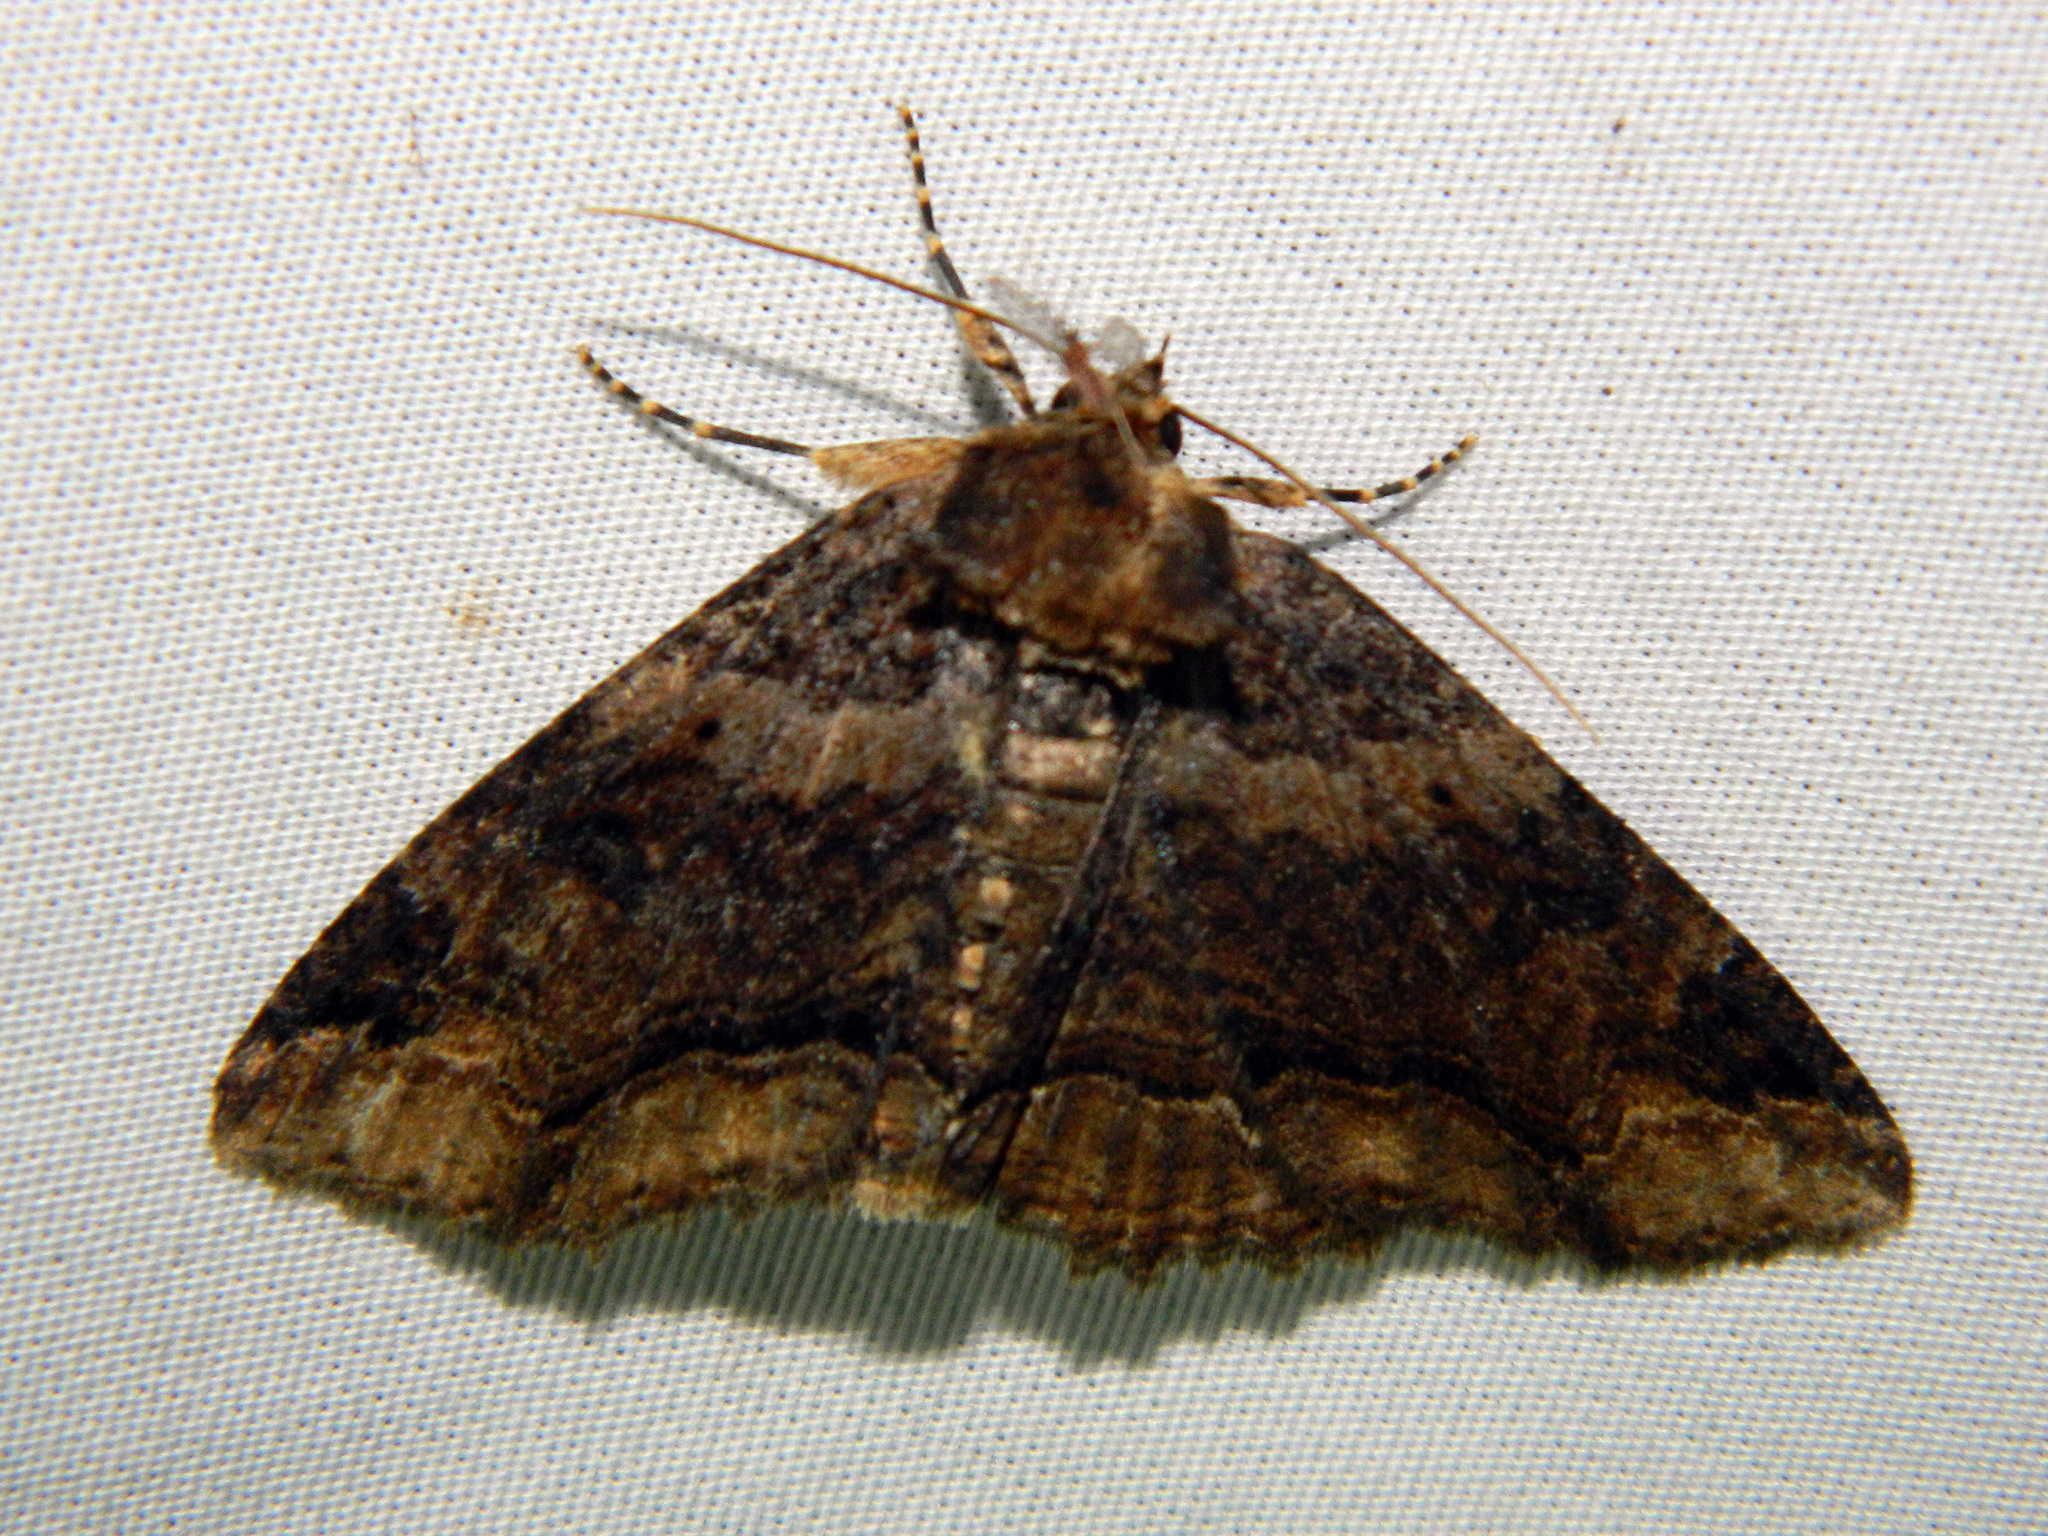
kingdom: Animalia
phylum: Arthropoda
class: Insecta
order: Lepidoptera
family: Erebidae
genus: Zale
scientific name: Zale minerea
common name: Colorful zale moth
